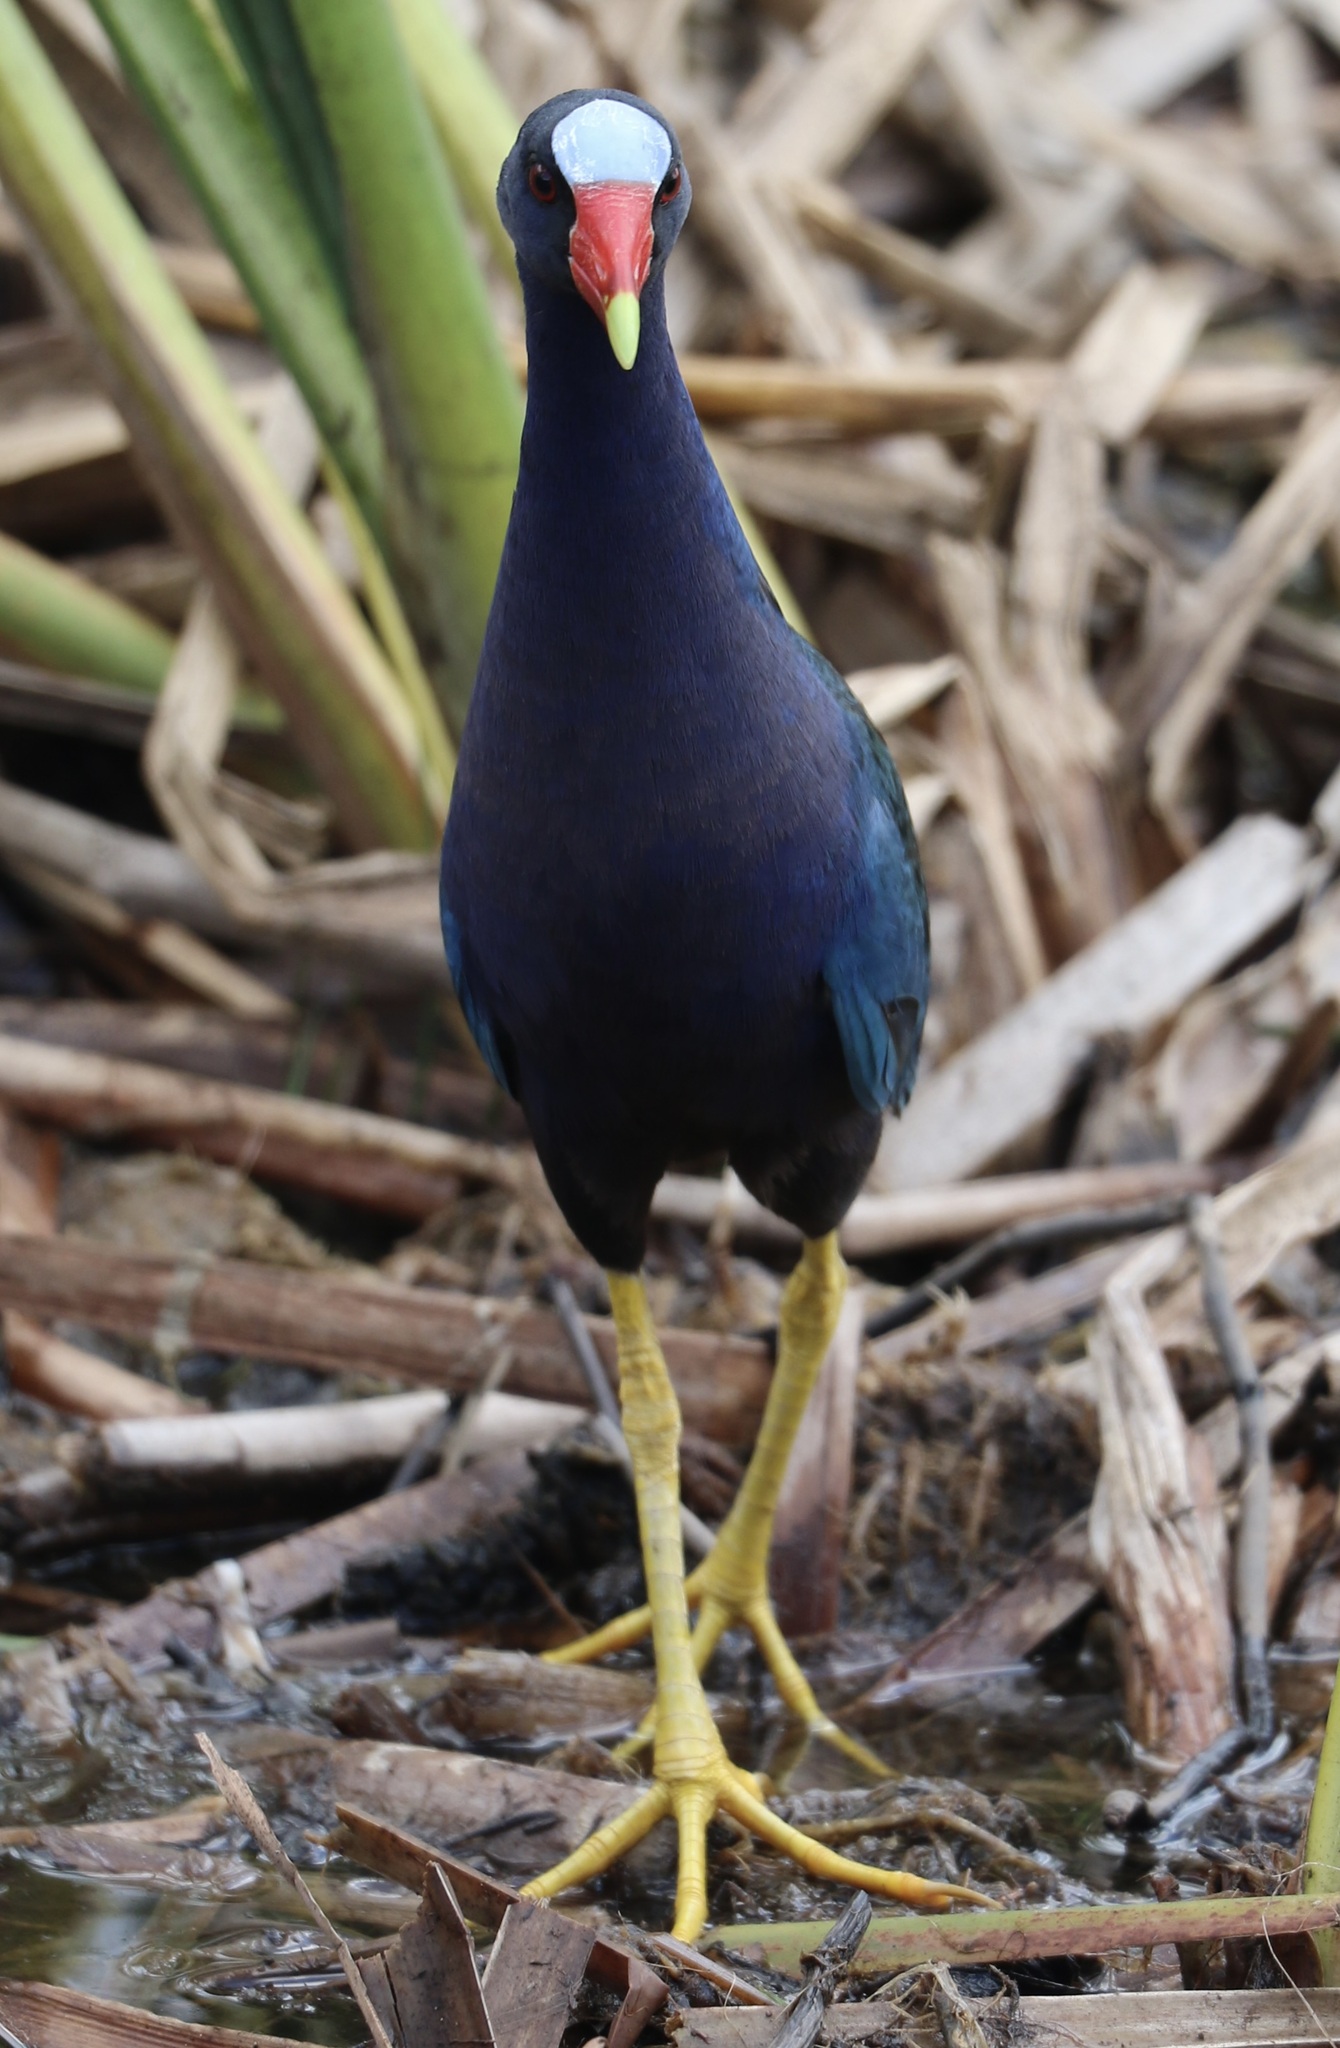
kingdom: Animalia
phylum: Chordata
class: Aves
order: Gruiformes
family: Rallidae
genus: Porphyrio
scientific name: Porphyrio martinica
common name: Purple gallinule
